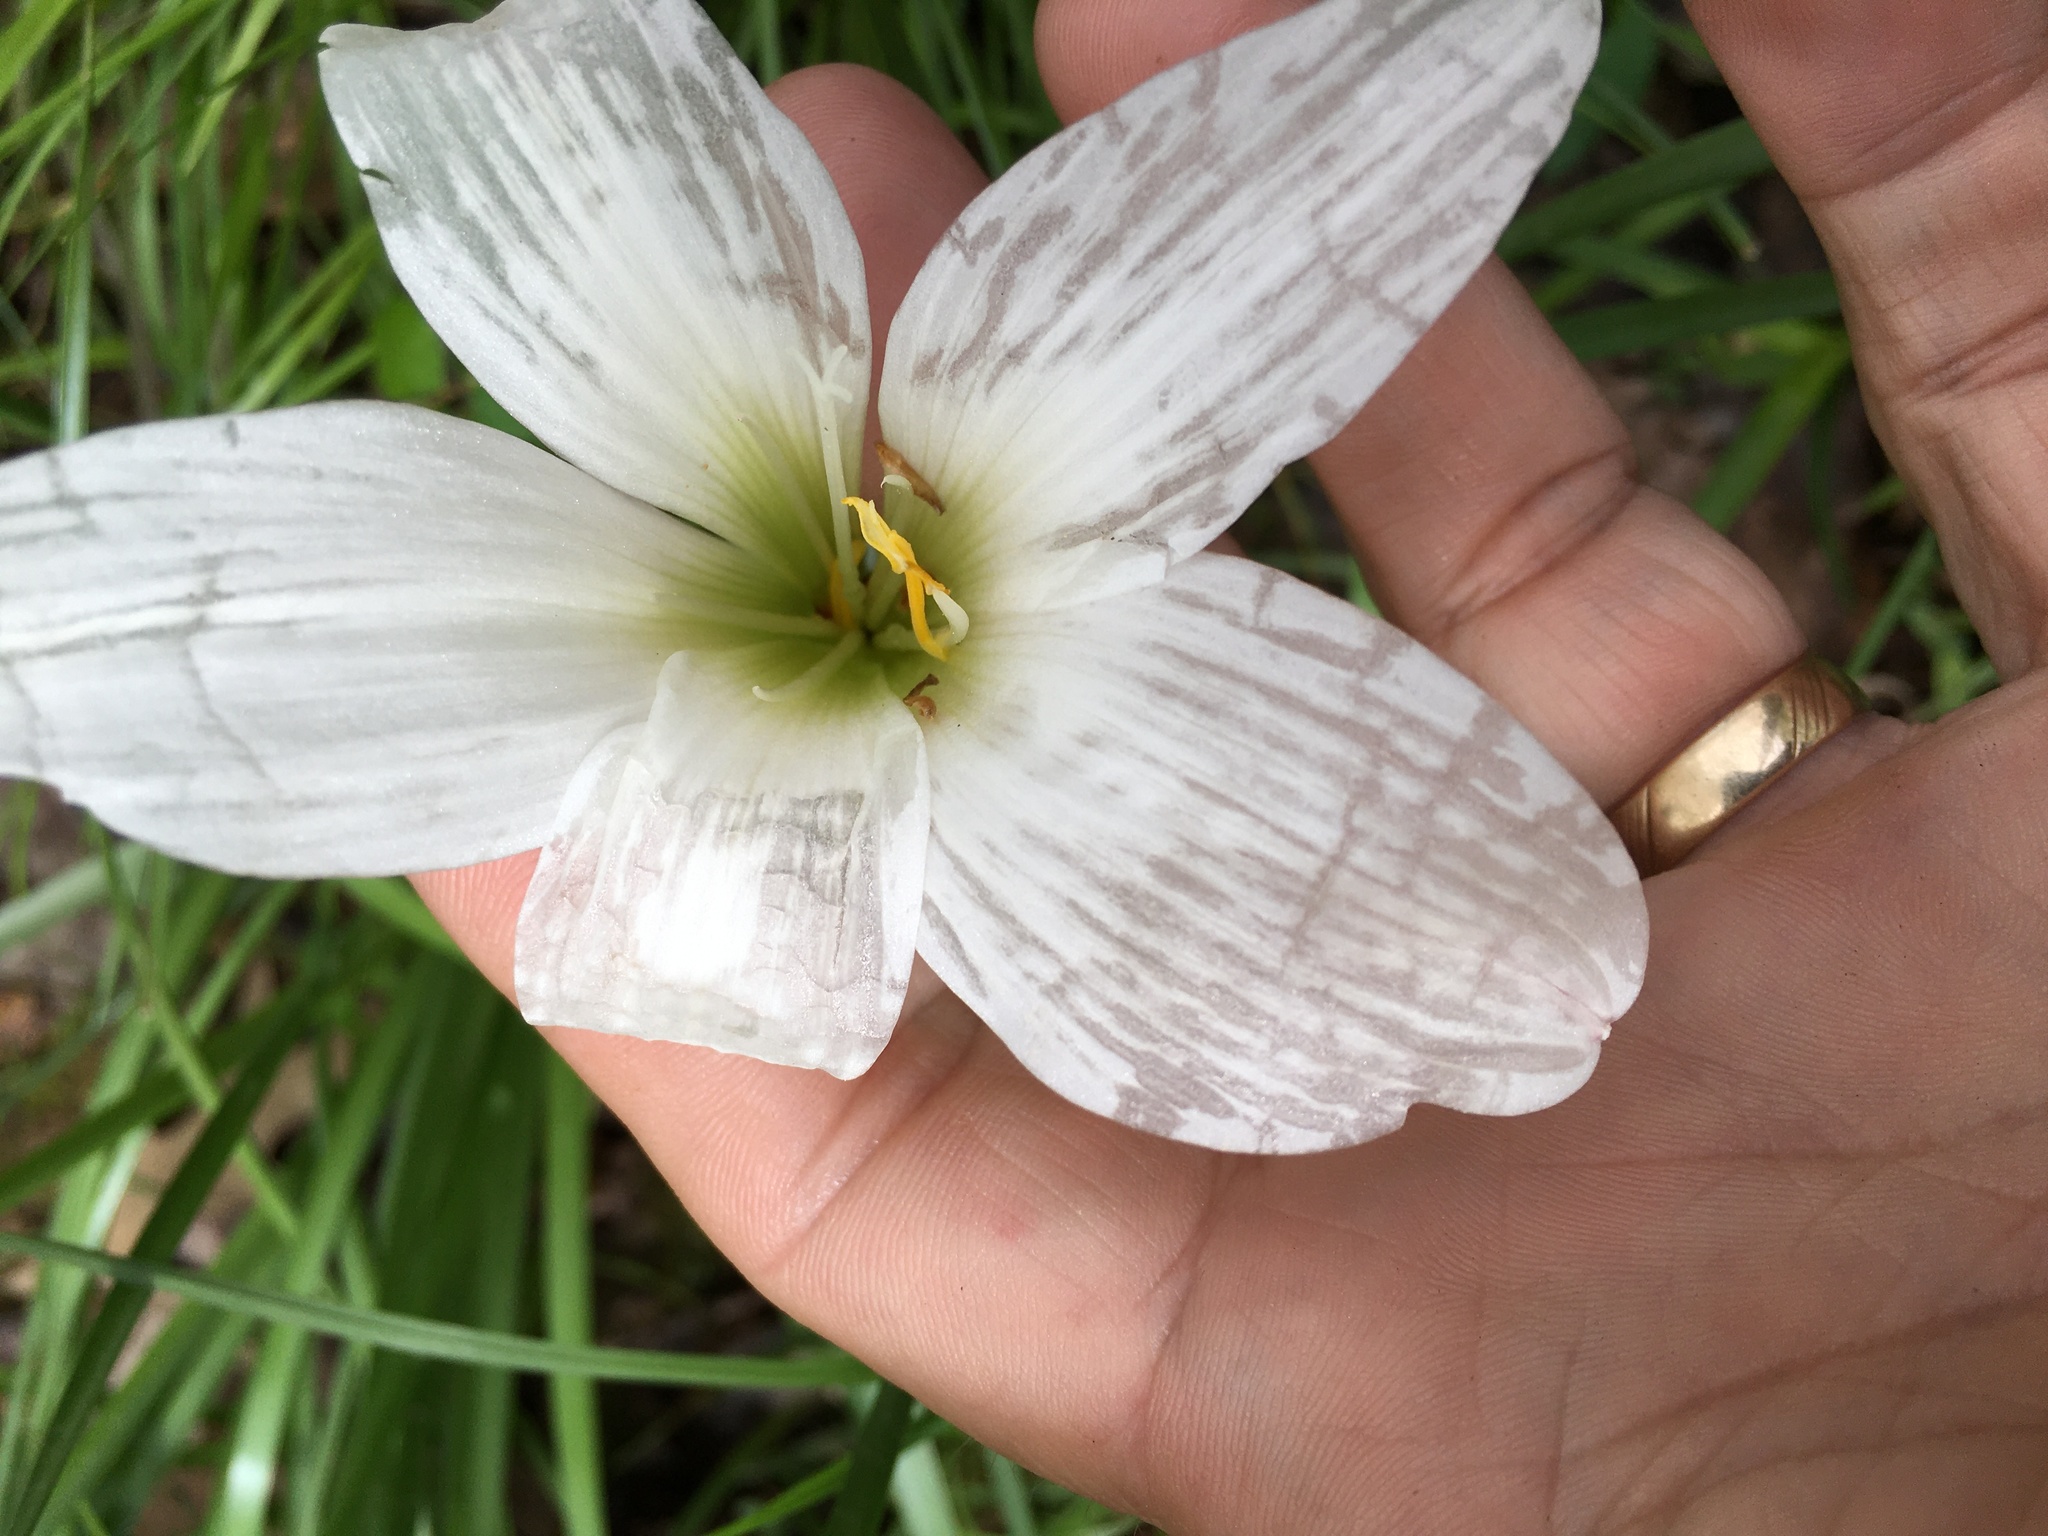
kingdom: Plantae
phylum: Tracheophyta
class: Liliopsida
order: Asparagales
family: Amaryllidaceae
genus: Zephyranthes
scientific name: Zephyranthes atamasco
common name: Atamasco lily
